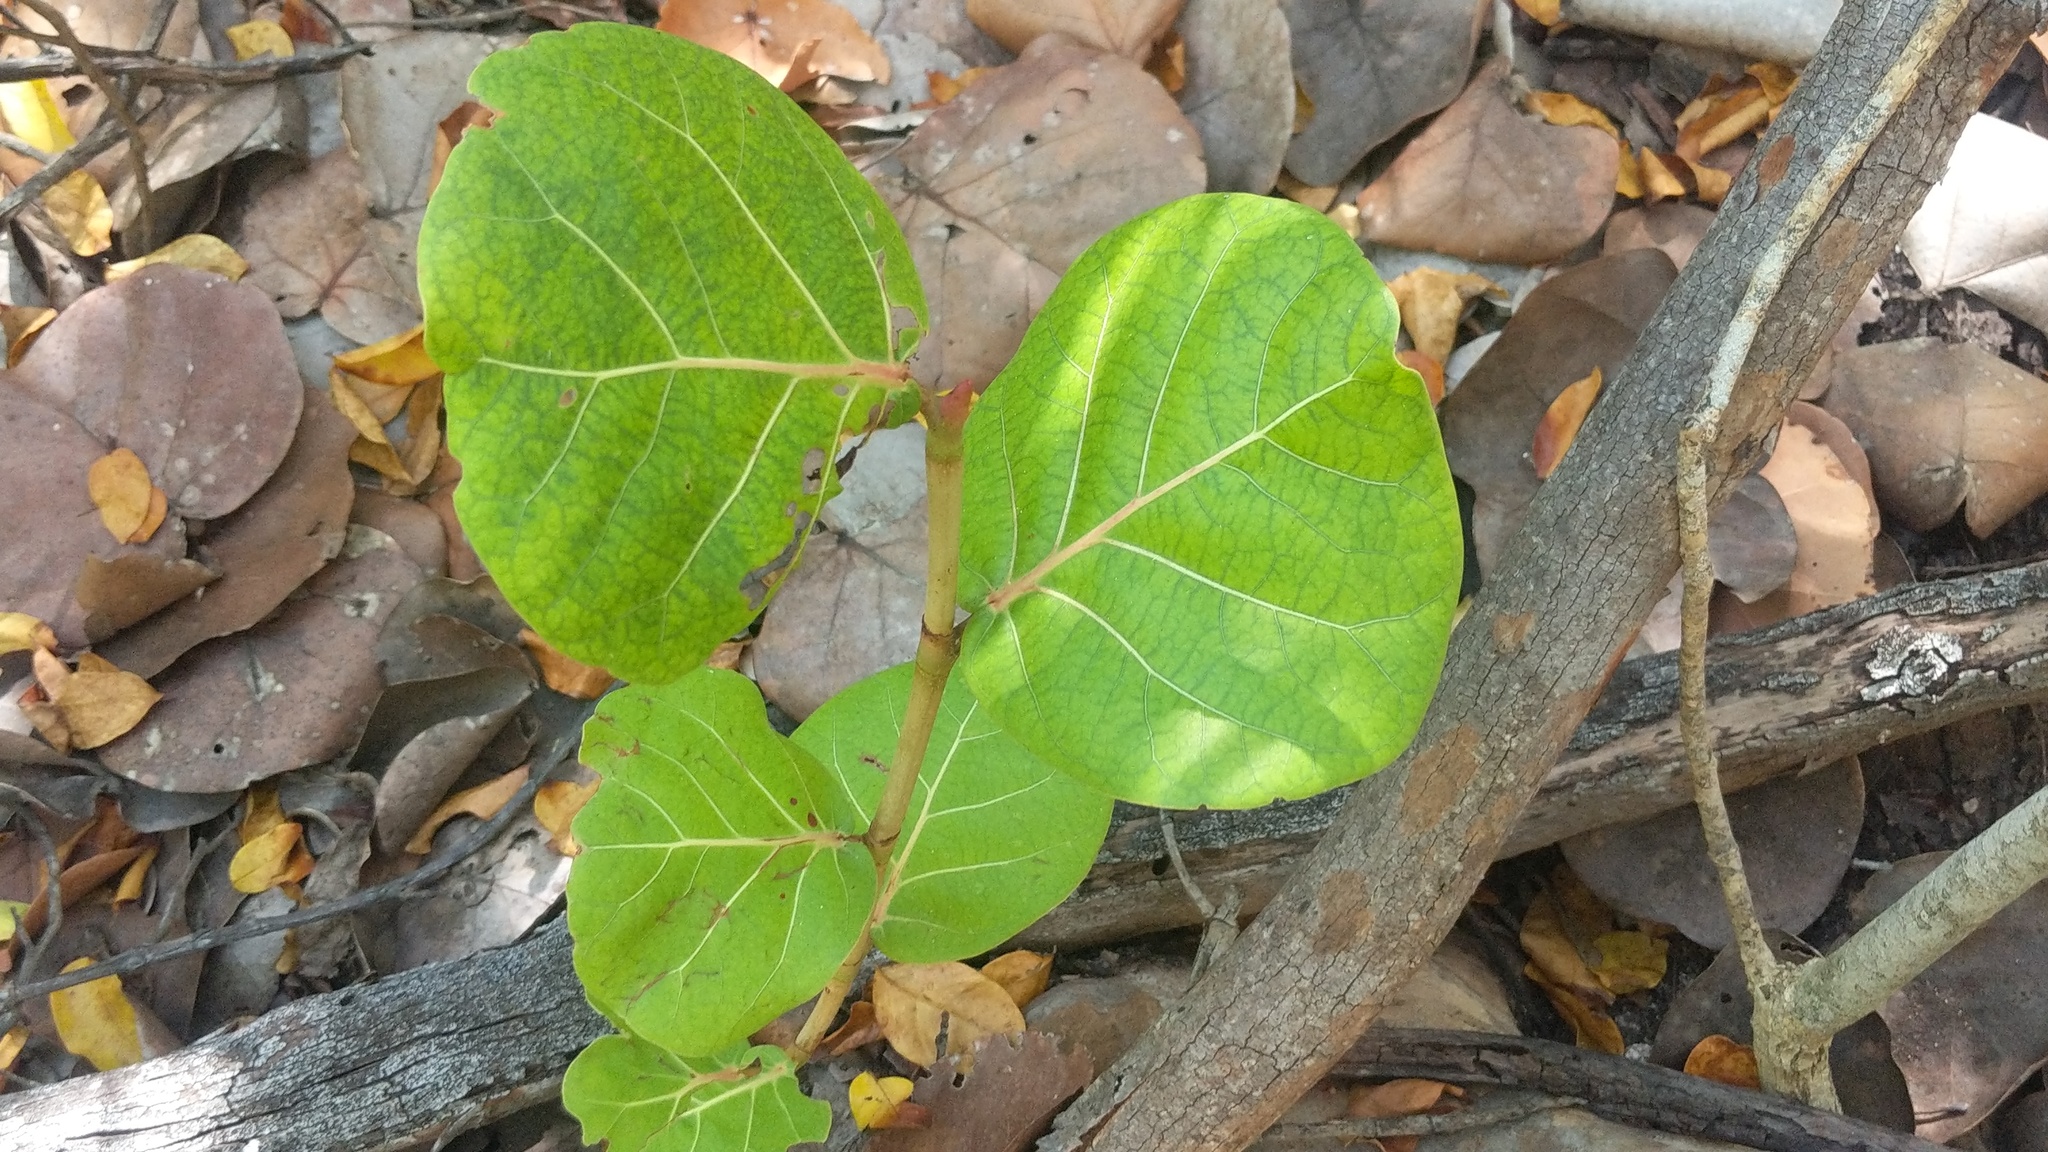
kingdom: Plantae
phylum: Tracheophyta
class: Magnoliopsida
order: Caryophyllales
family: Polygonaceae
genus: Coccoloba
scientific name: Coccoloba uvifera
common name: Seagrape
